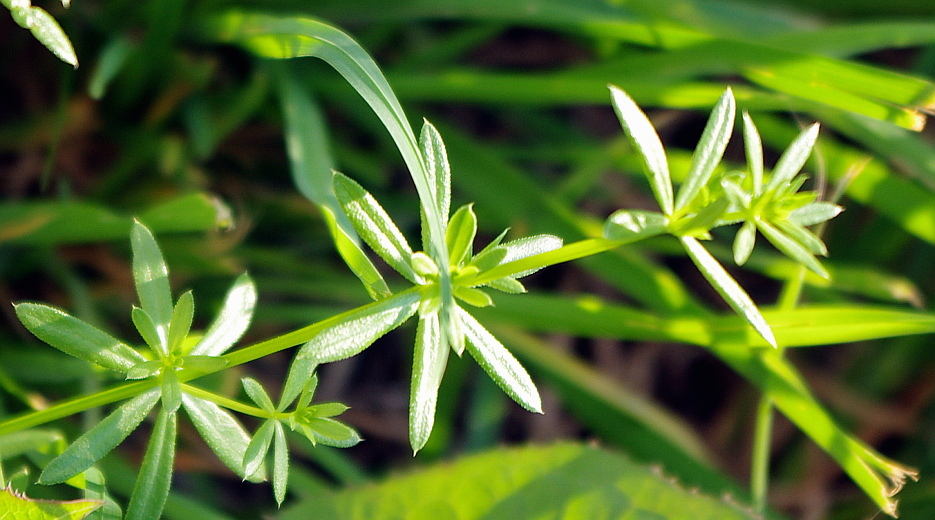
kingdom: Plantae
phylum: Tracheophyta
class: Magnoliopsida
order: Gentianales
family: Rubiaceae
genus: Galium
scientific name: Galium mollugo
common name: Hedge bedstraw
